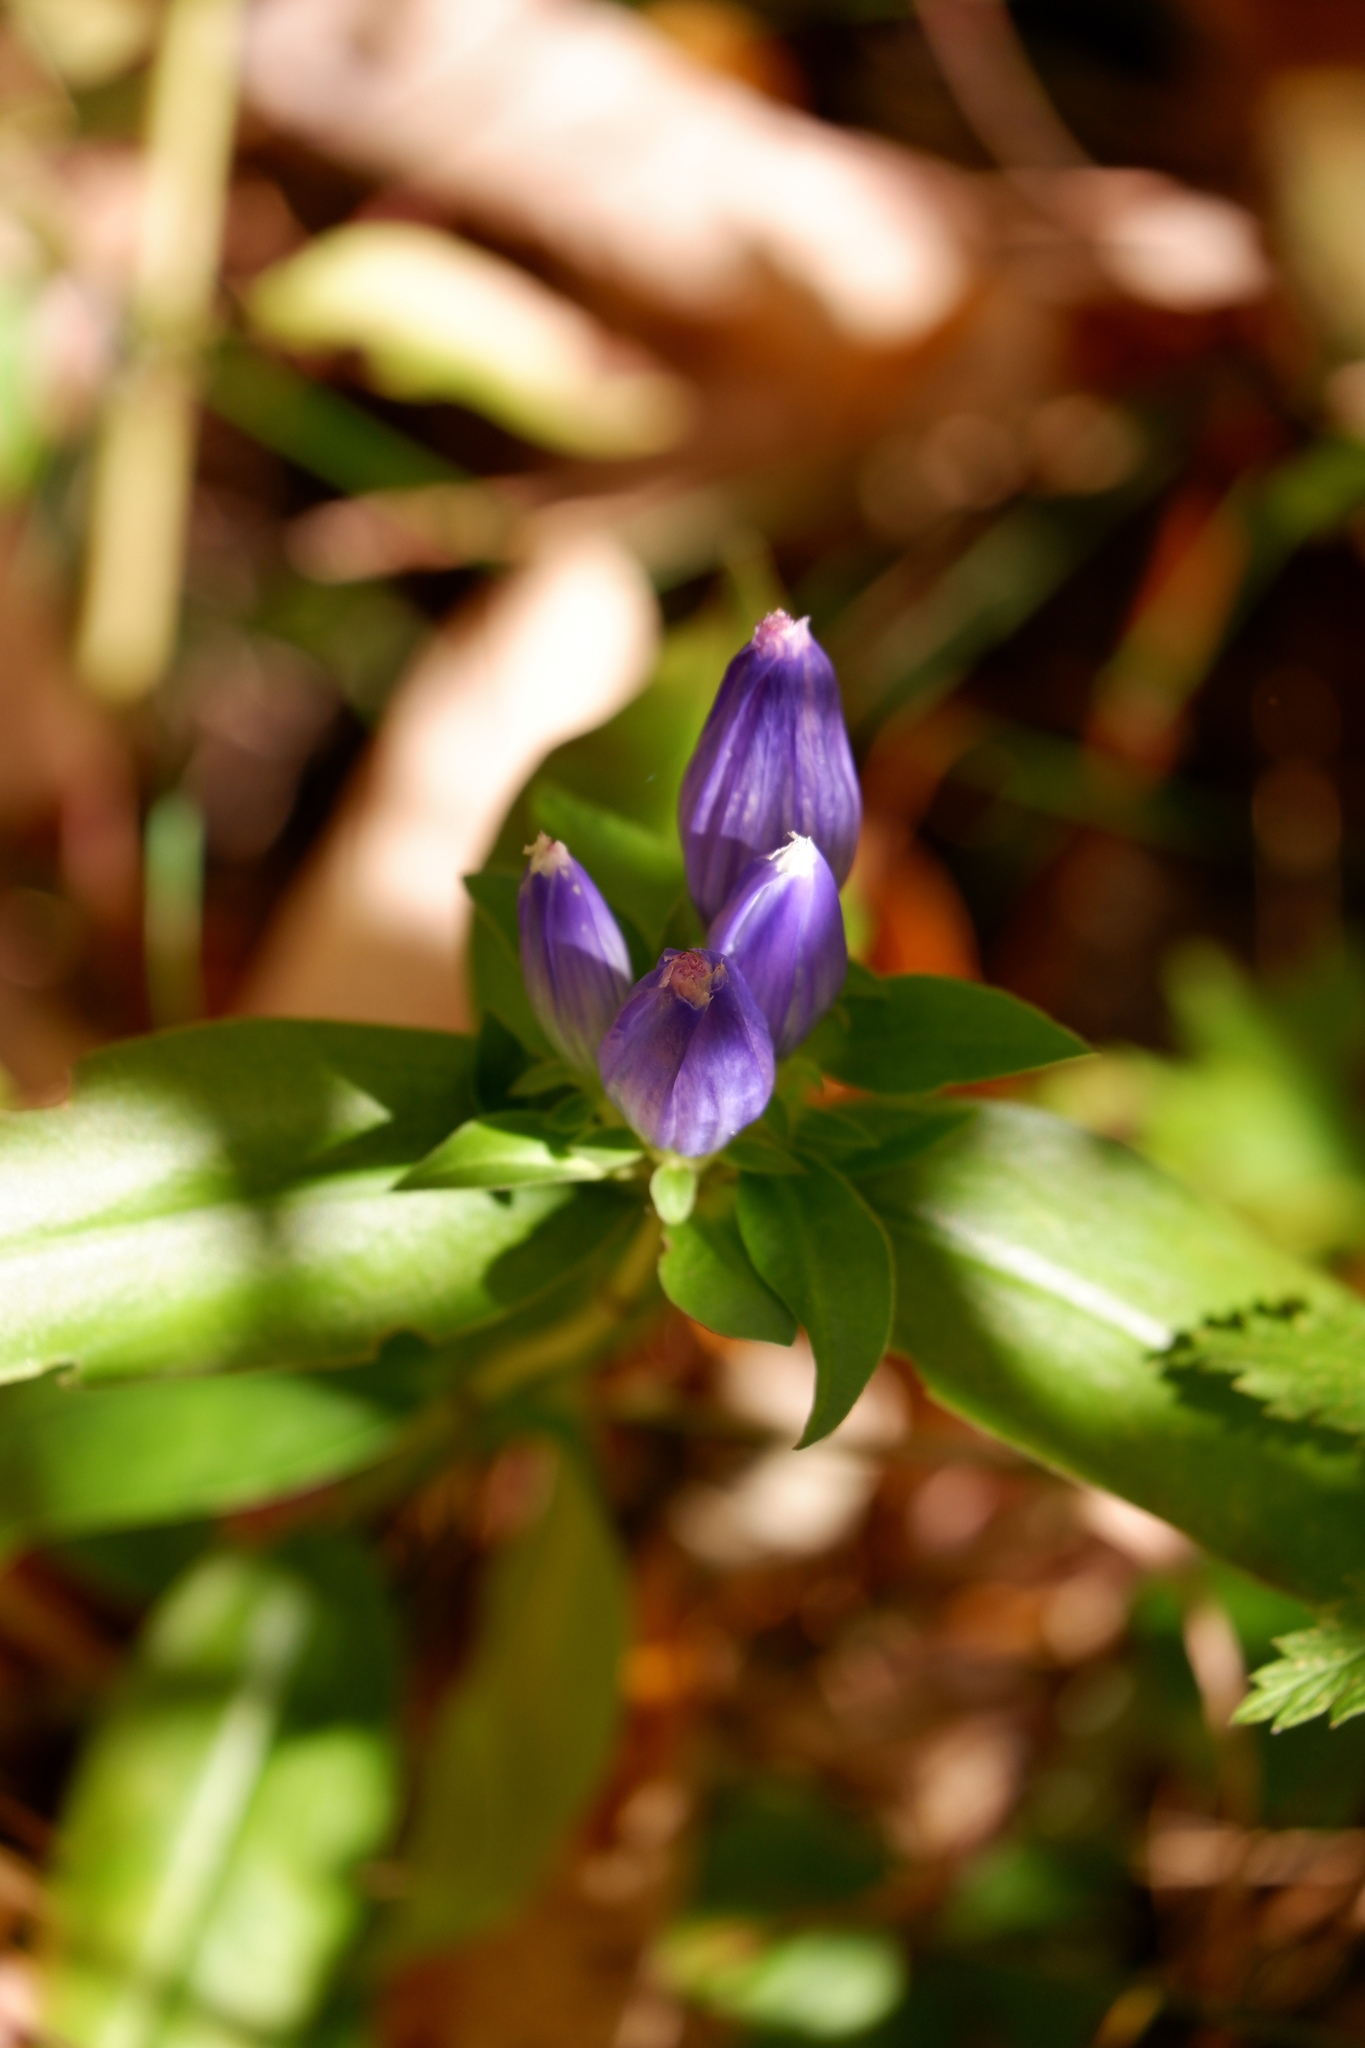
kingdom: Plantae
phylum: Tracheophyta
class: Magnoliopsida
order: Gentianales
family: Gentianaceae
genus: Gentiana
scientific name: Gentiana andrewsii
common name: Bottle gentian
